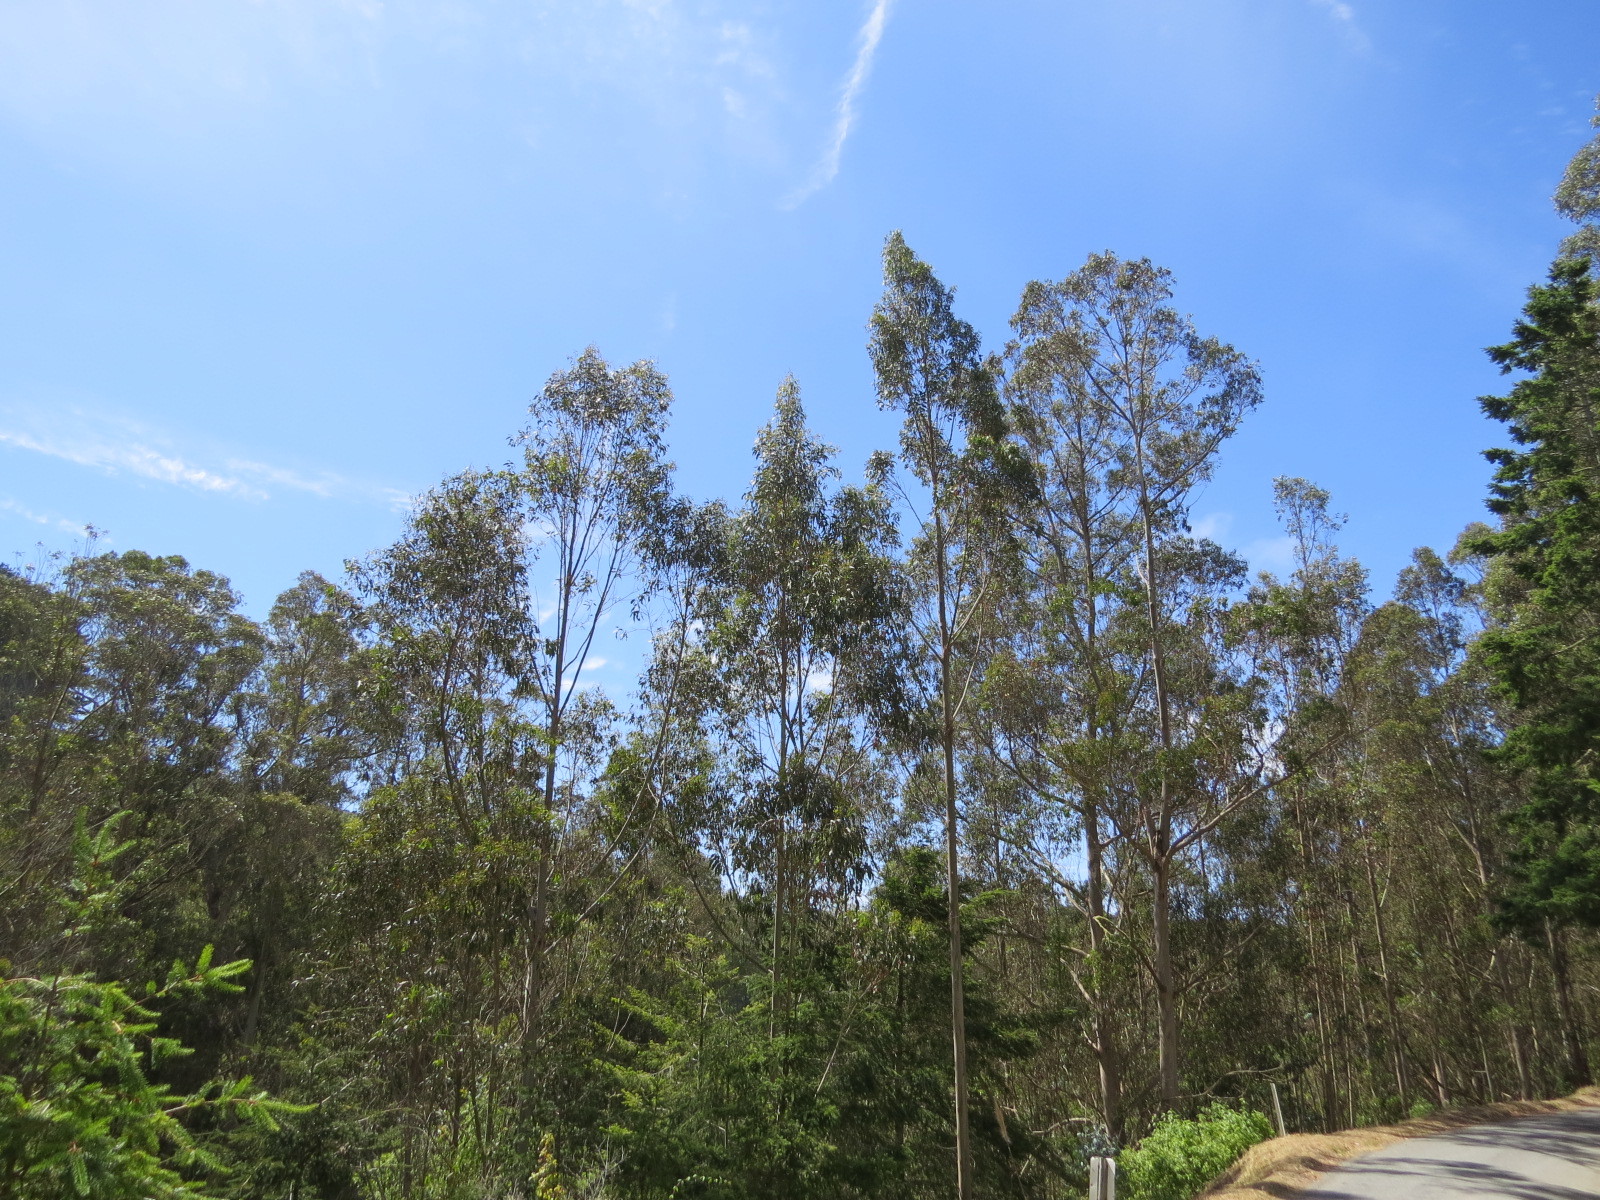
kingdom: Plantae
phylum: Tracheophyta
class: Magnoliopsida
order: Myrtales
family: Myrtaceae
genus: Eucalyptus
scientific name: Eucalyptus globulus
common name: Southern blue-gum
